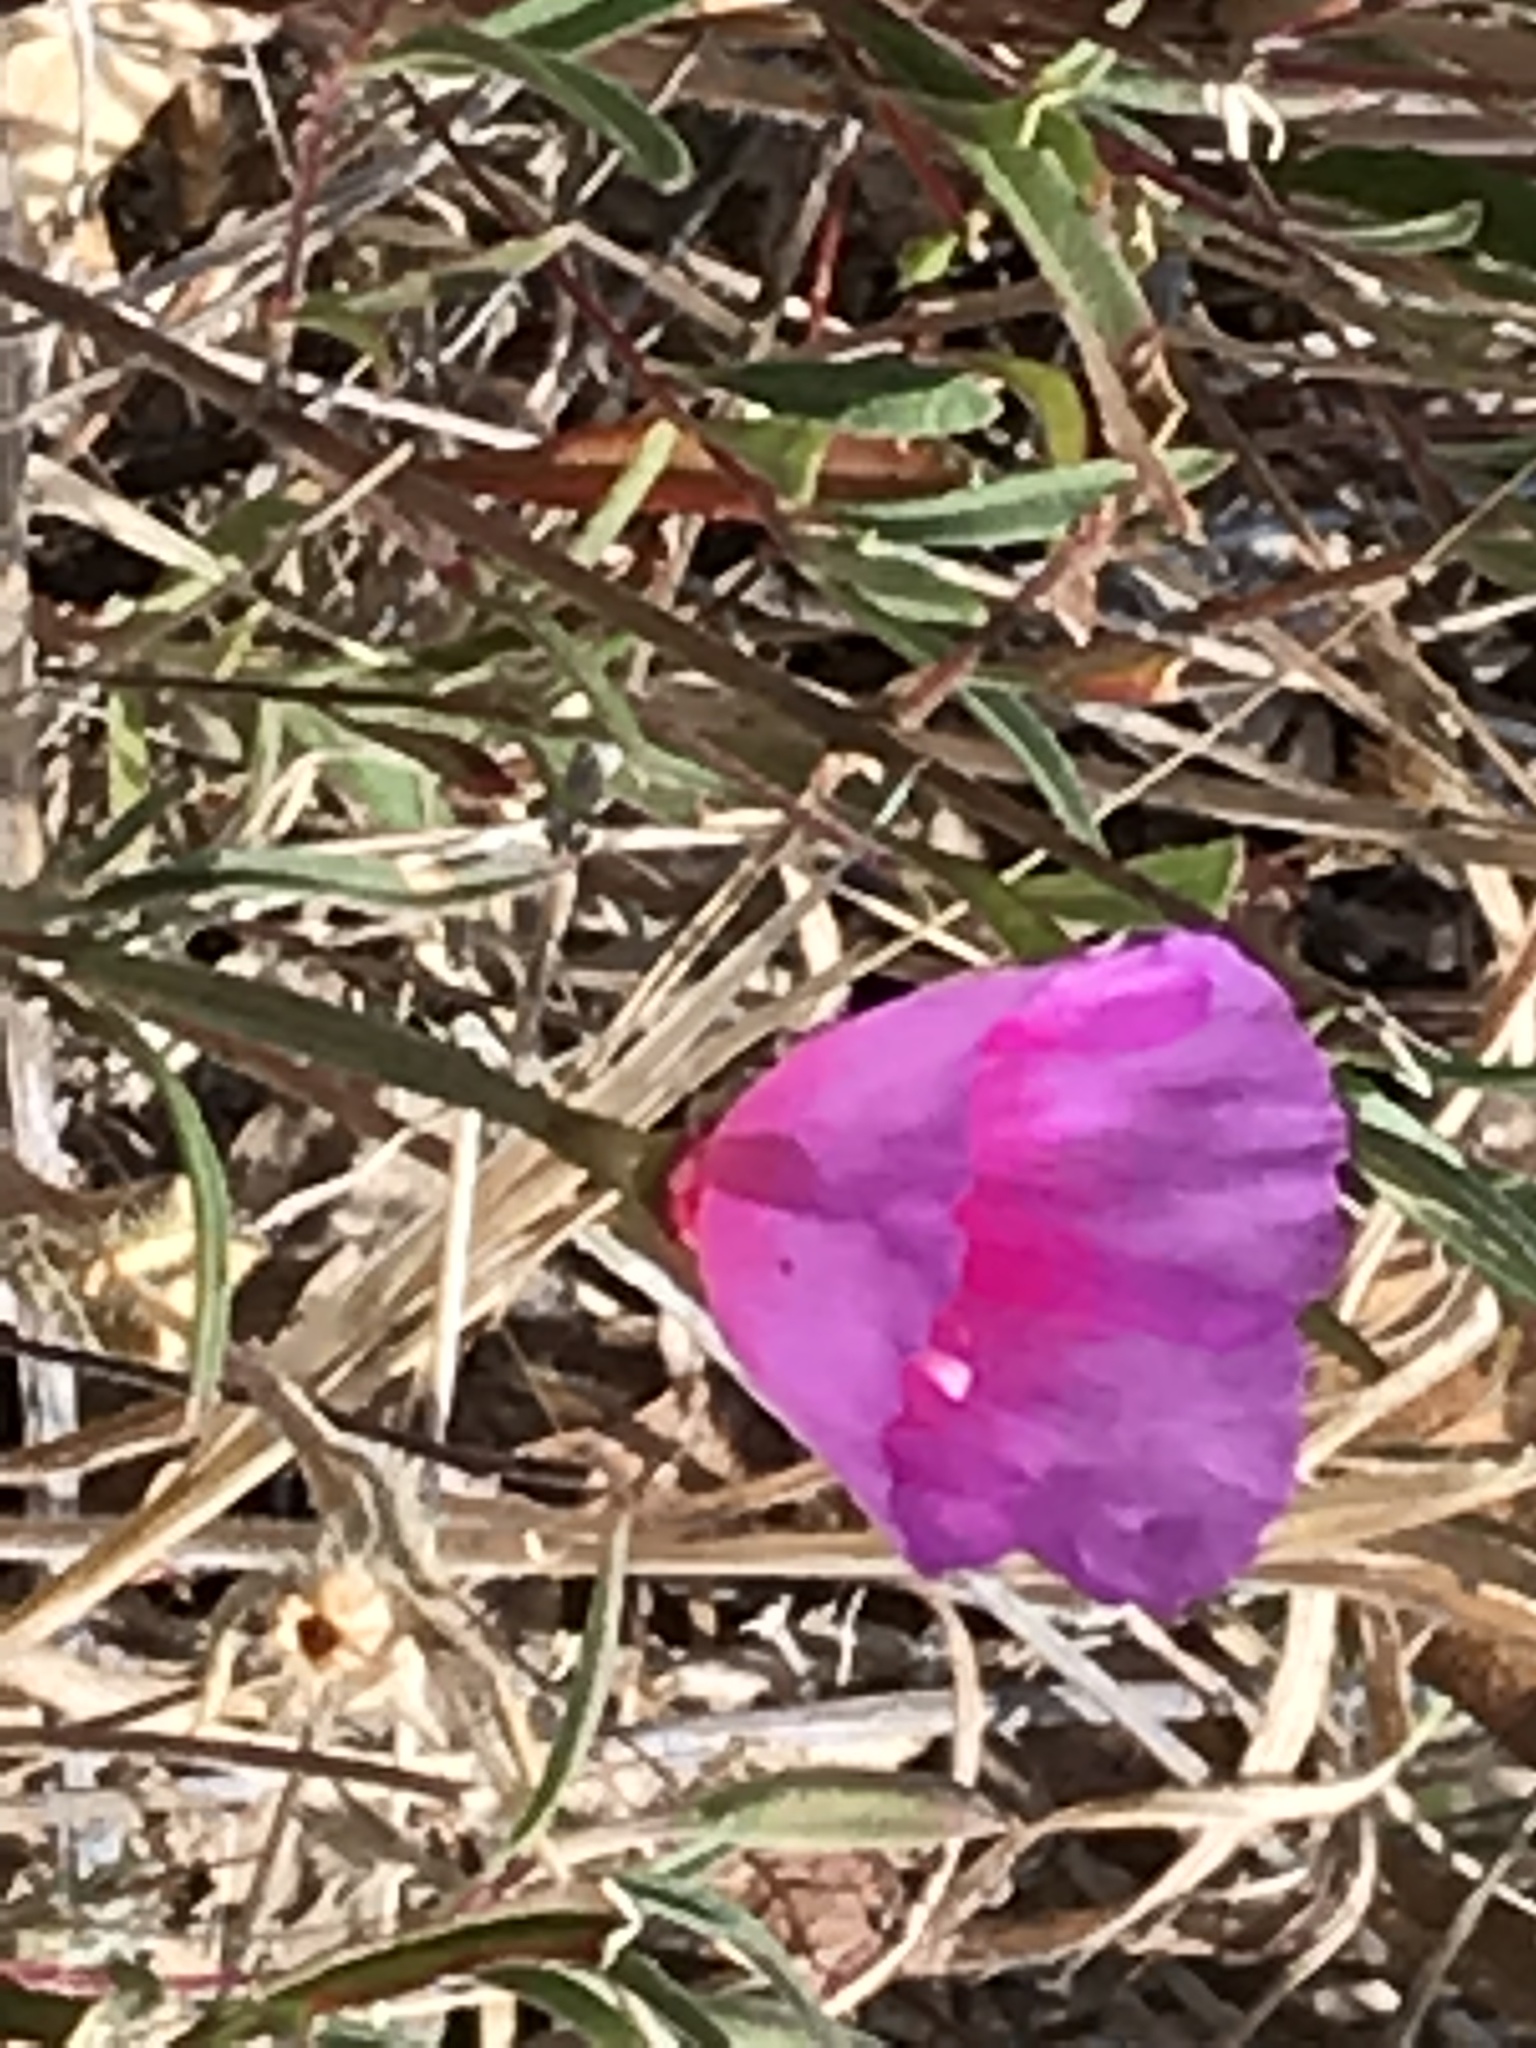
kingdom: Plantae
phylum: Tracheophyta
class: Magnoliopsida
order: Myrtales
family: Onagraceae
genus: Clarkia
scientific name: Clarkia rubicunda
